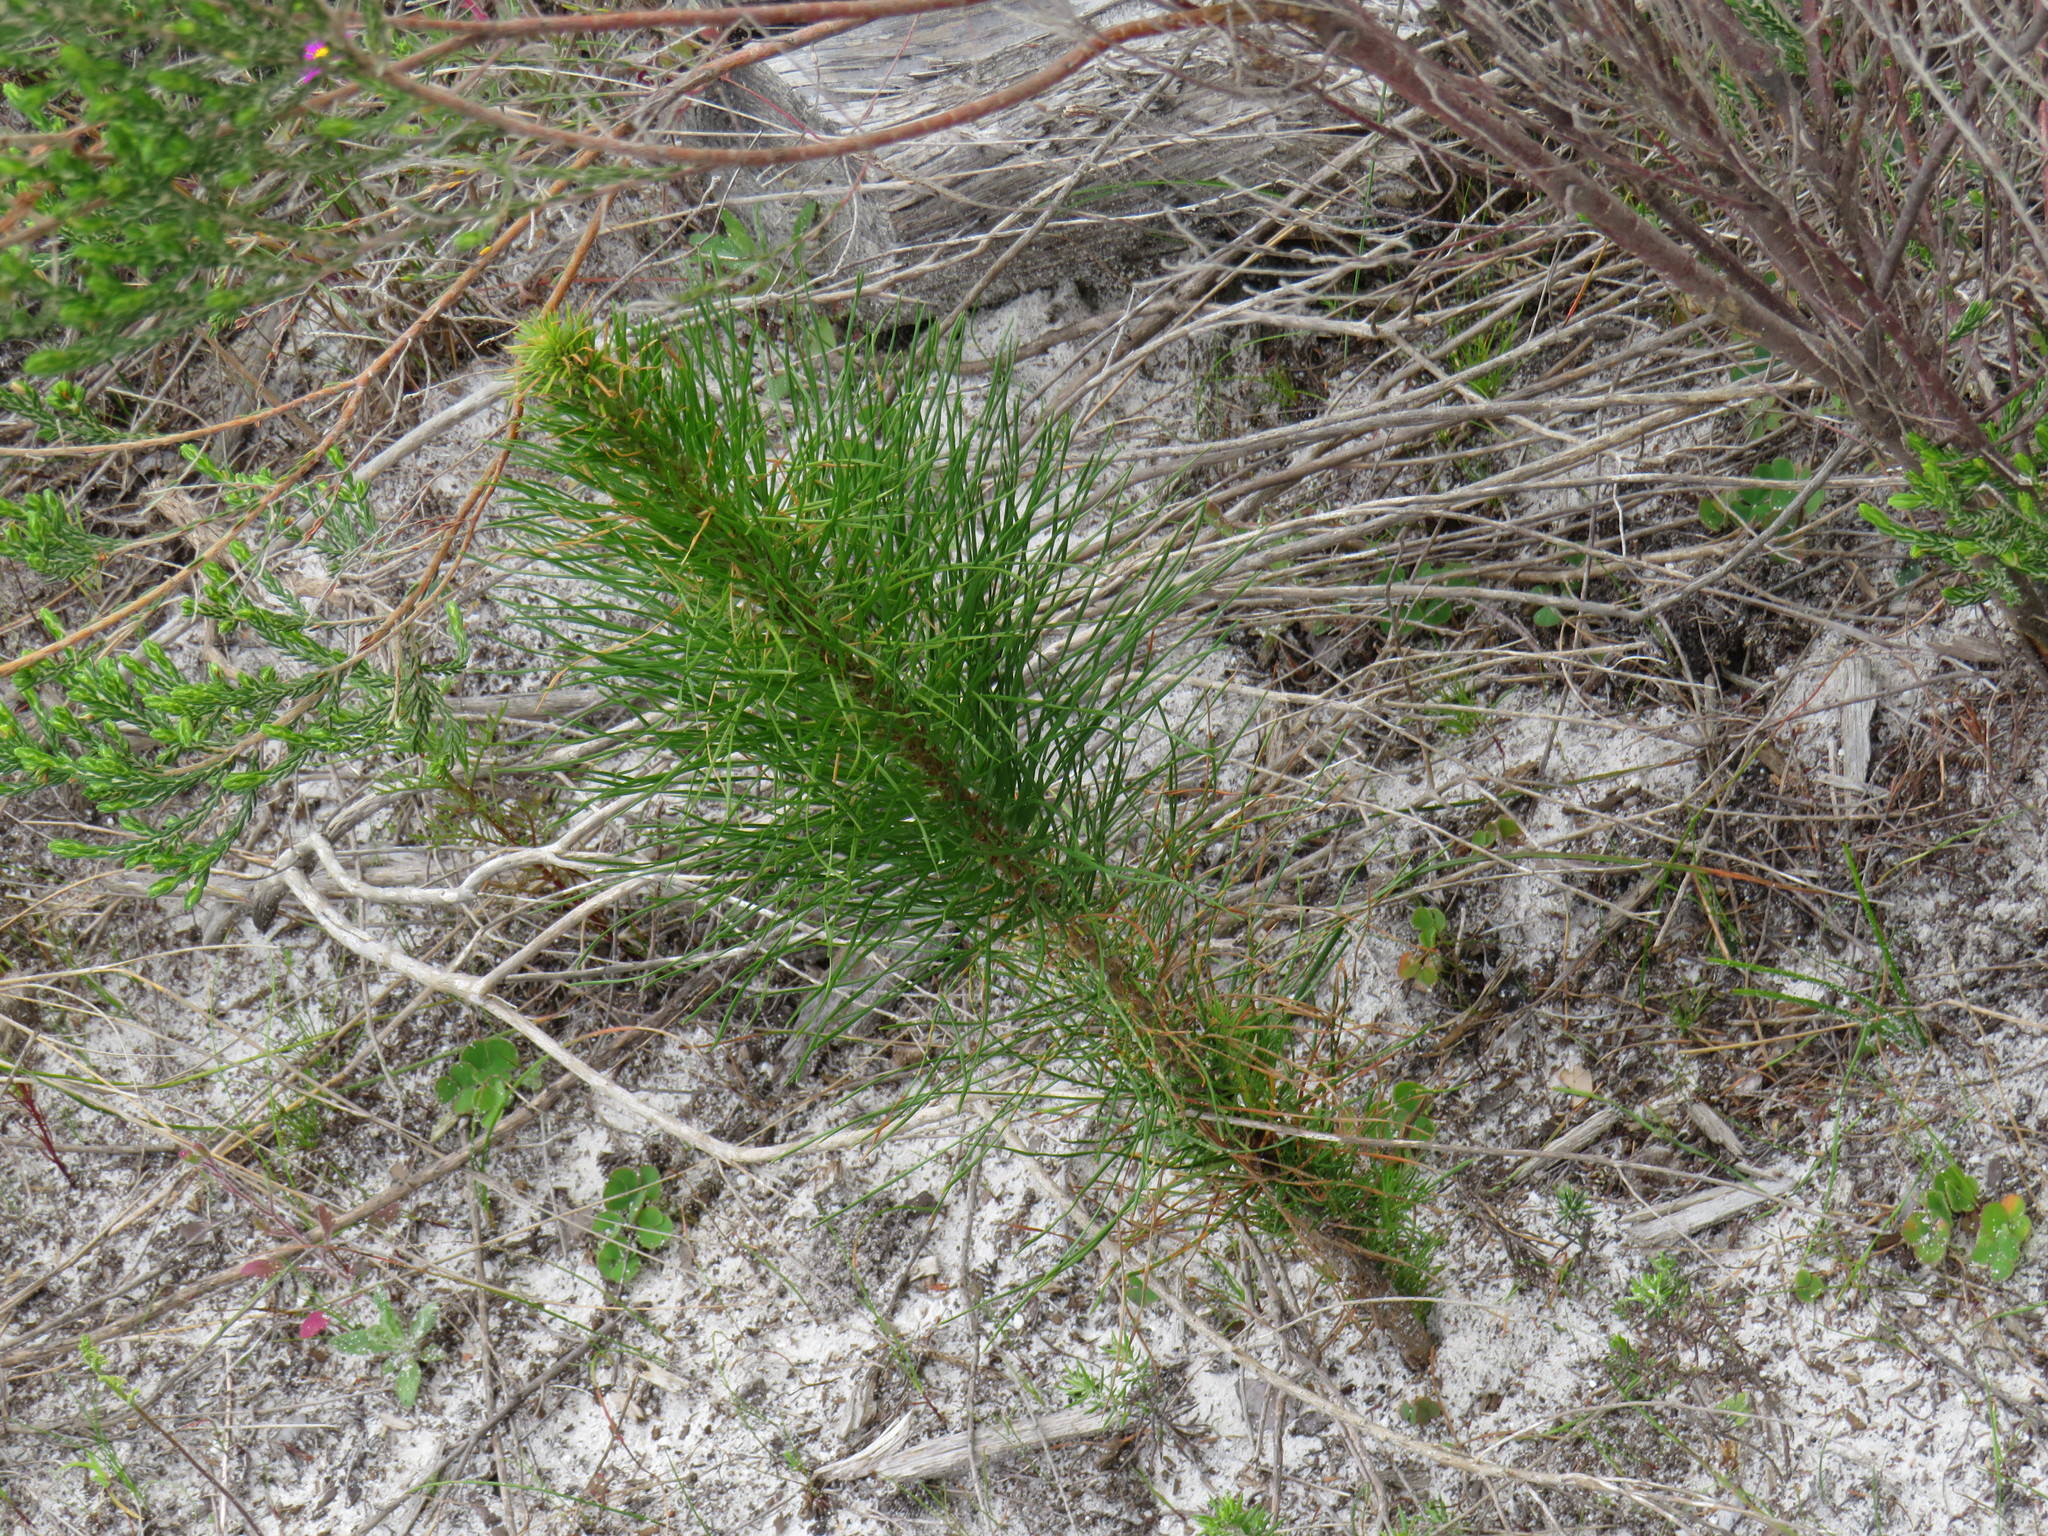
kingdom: Plantae
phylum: Tracheophyta
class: Pinopsida
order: Pinales
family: Pinaceae
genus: Pinus
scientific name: Pinus radiata
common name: Monterey pine
